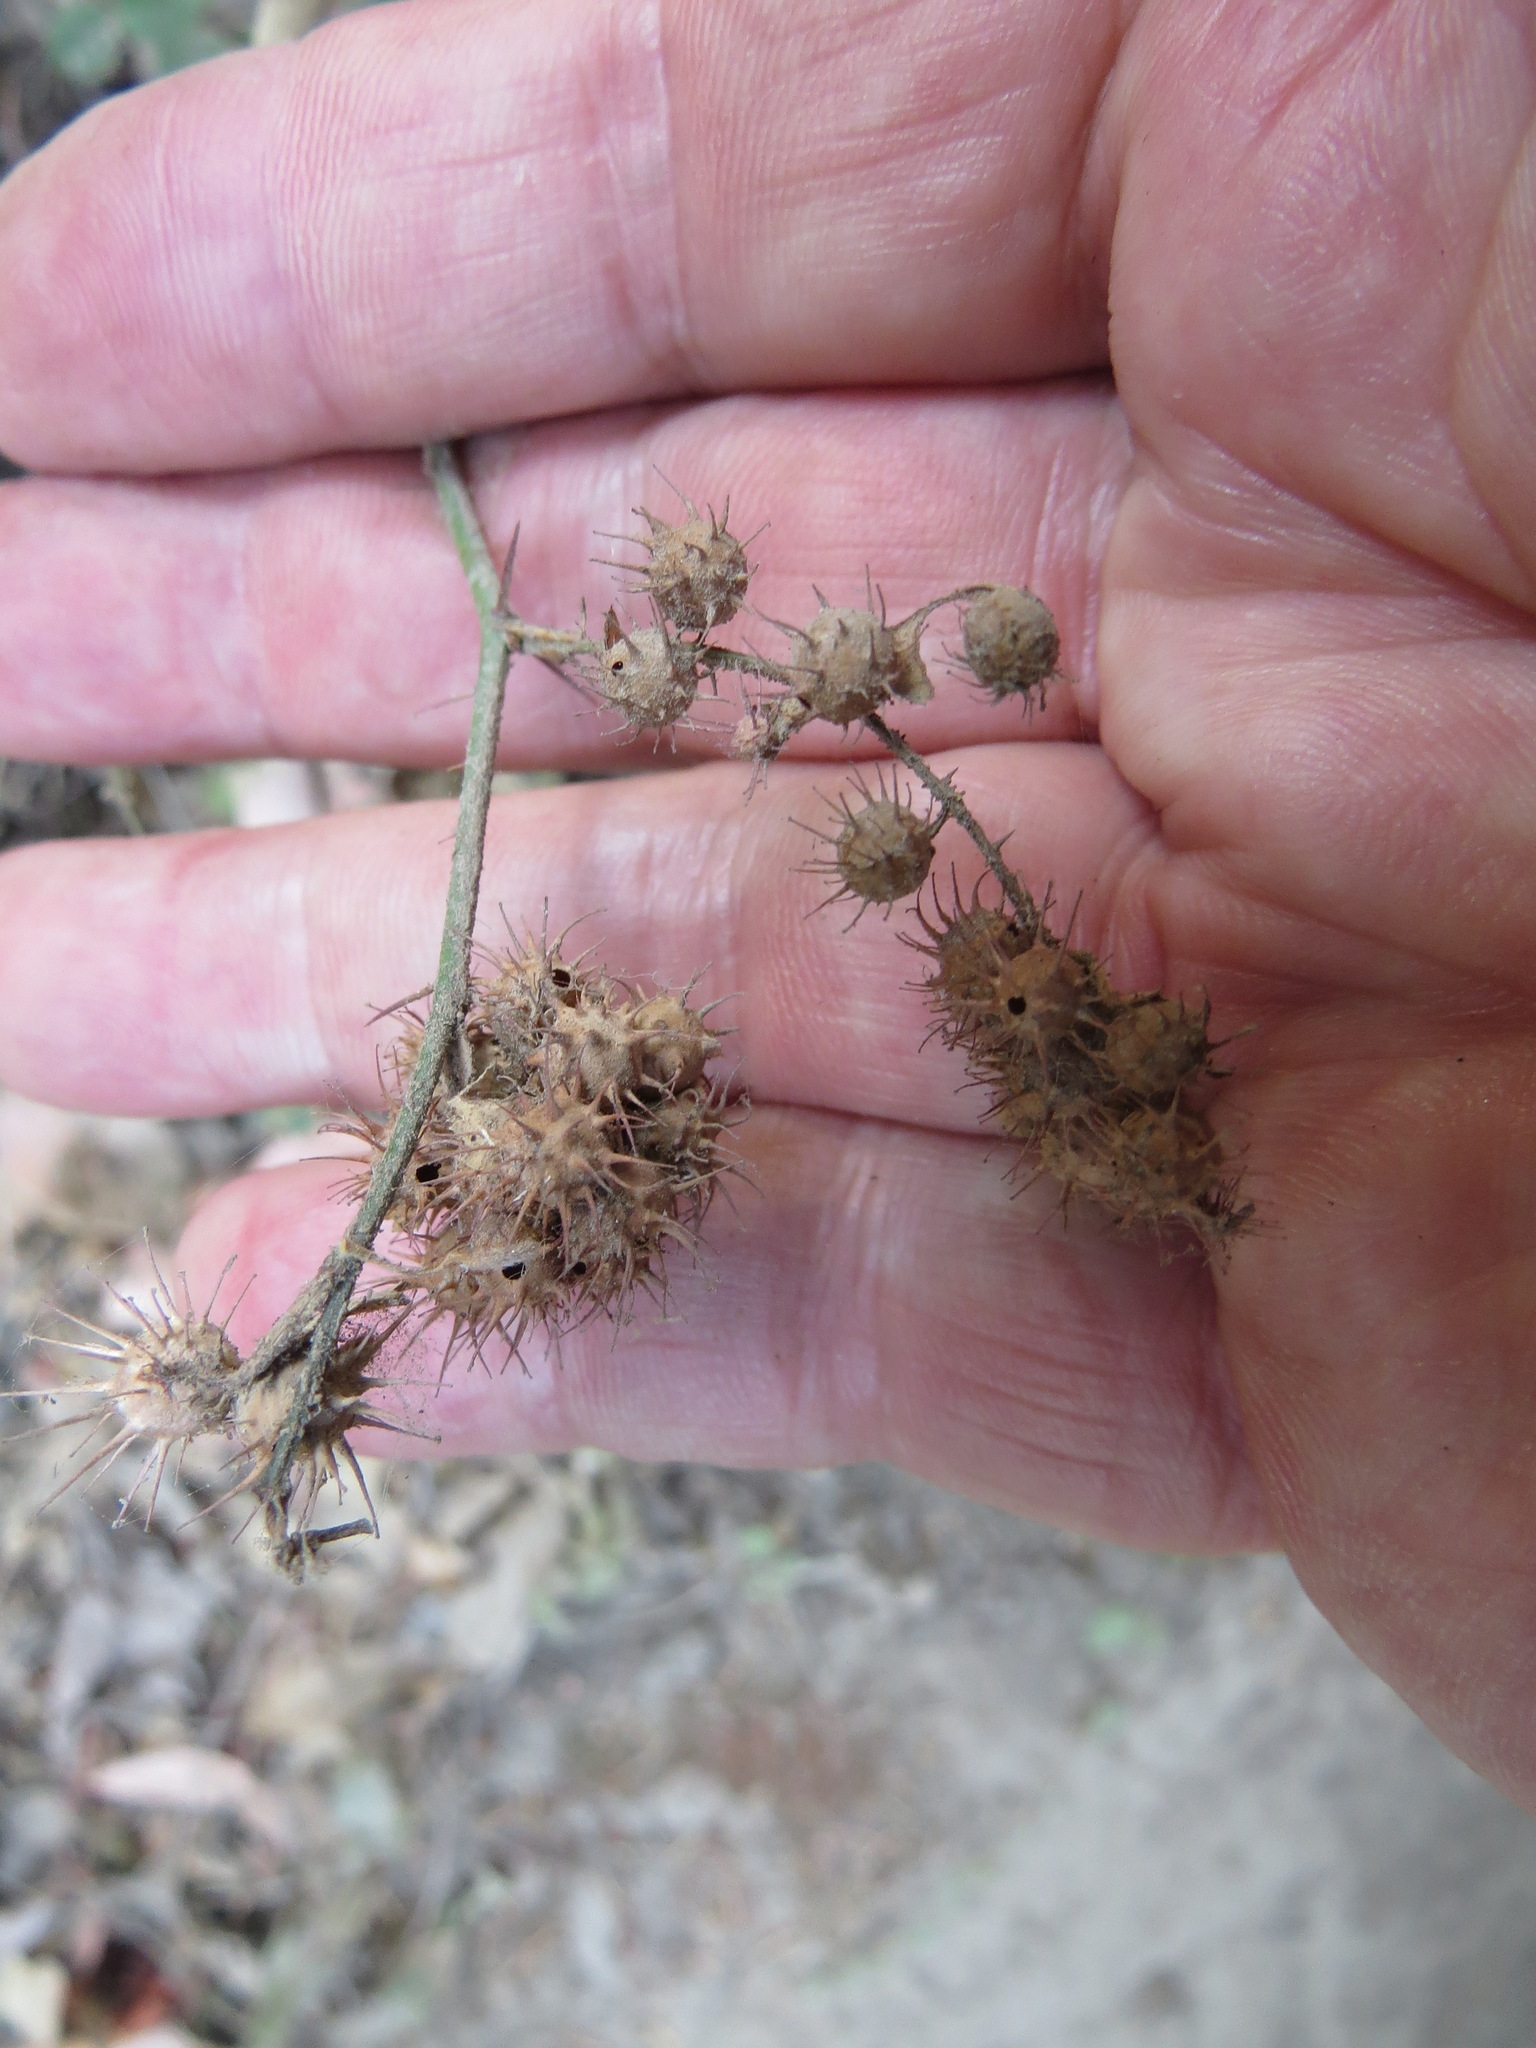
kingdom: Animalia
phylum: Arthropoda
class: Insecta
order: Hymenoptera
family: Cynipidae
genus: Diplolepis
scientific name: Diplolepis polita
